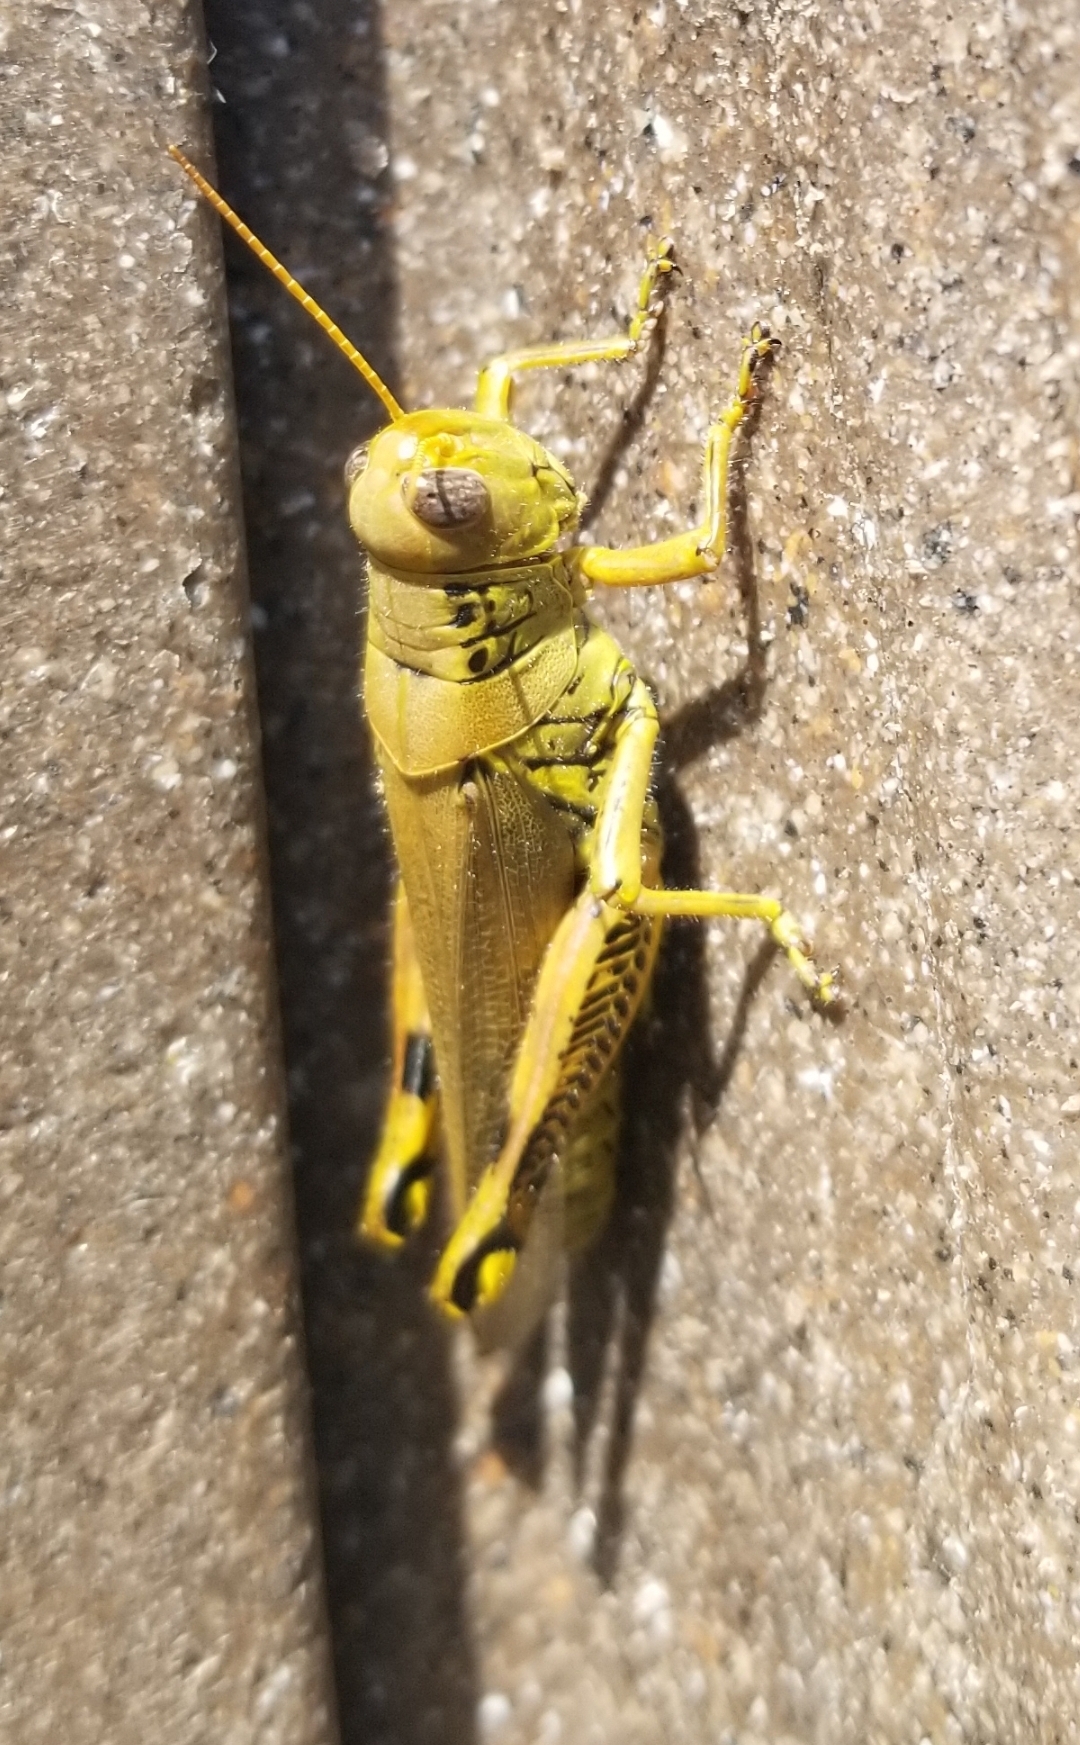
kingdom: Animalia
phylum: Arthropoda
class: Insecta
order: Orthoptera
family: Acrididae
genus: Melanoplus
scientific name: Melanoplus differentialis
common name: Differential grasshopper
